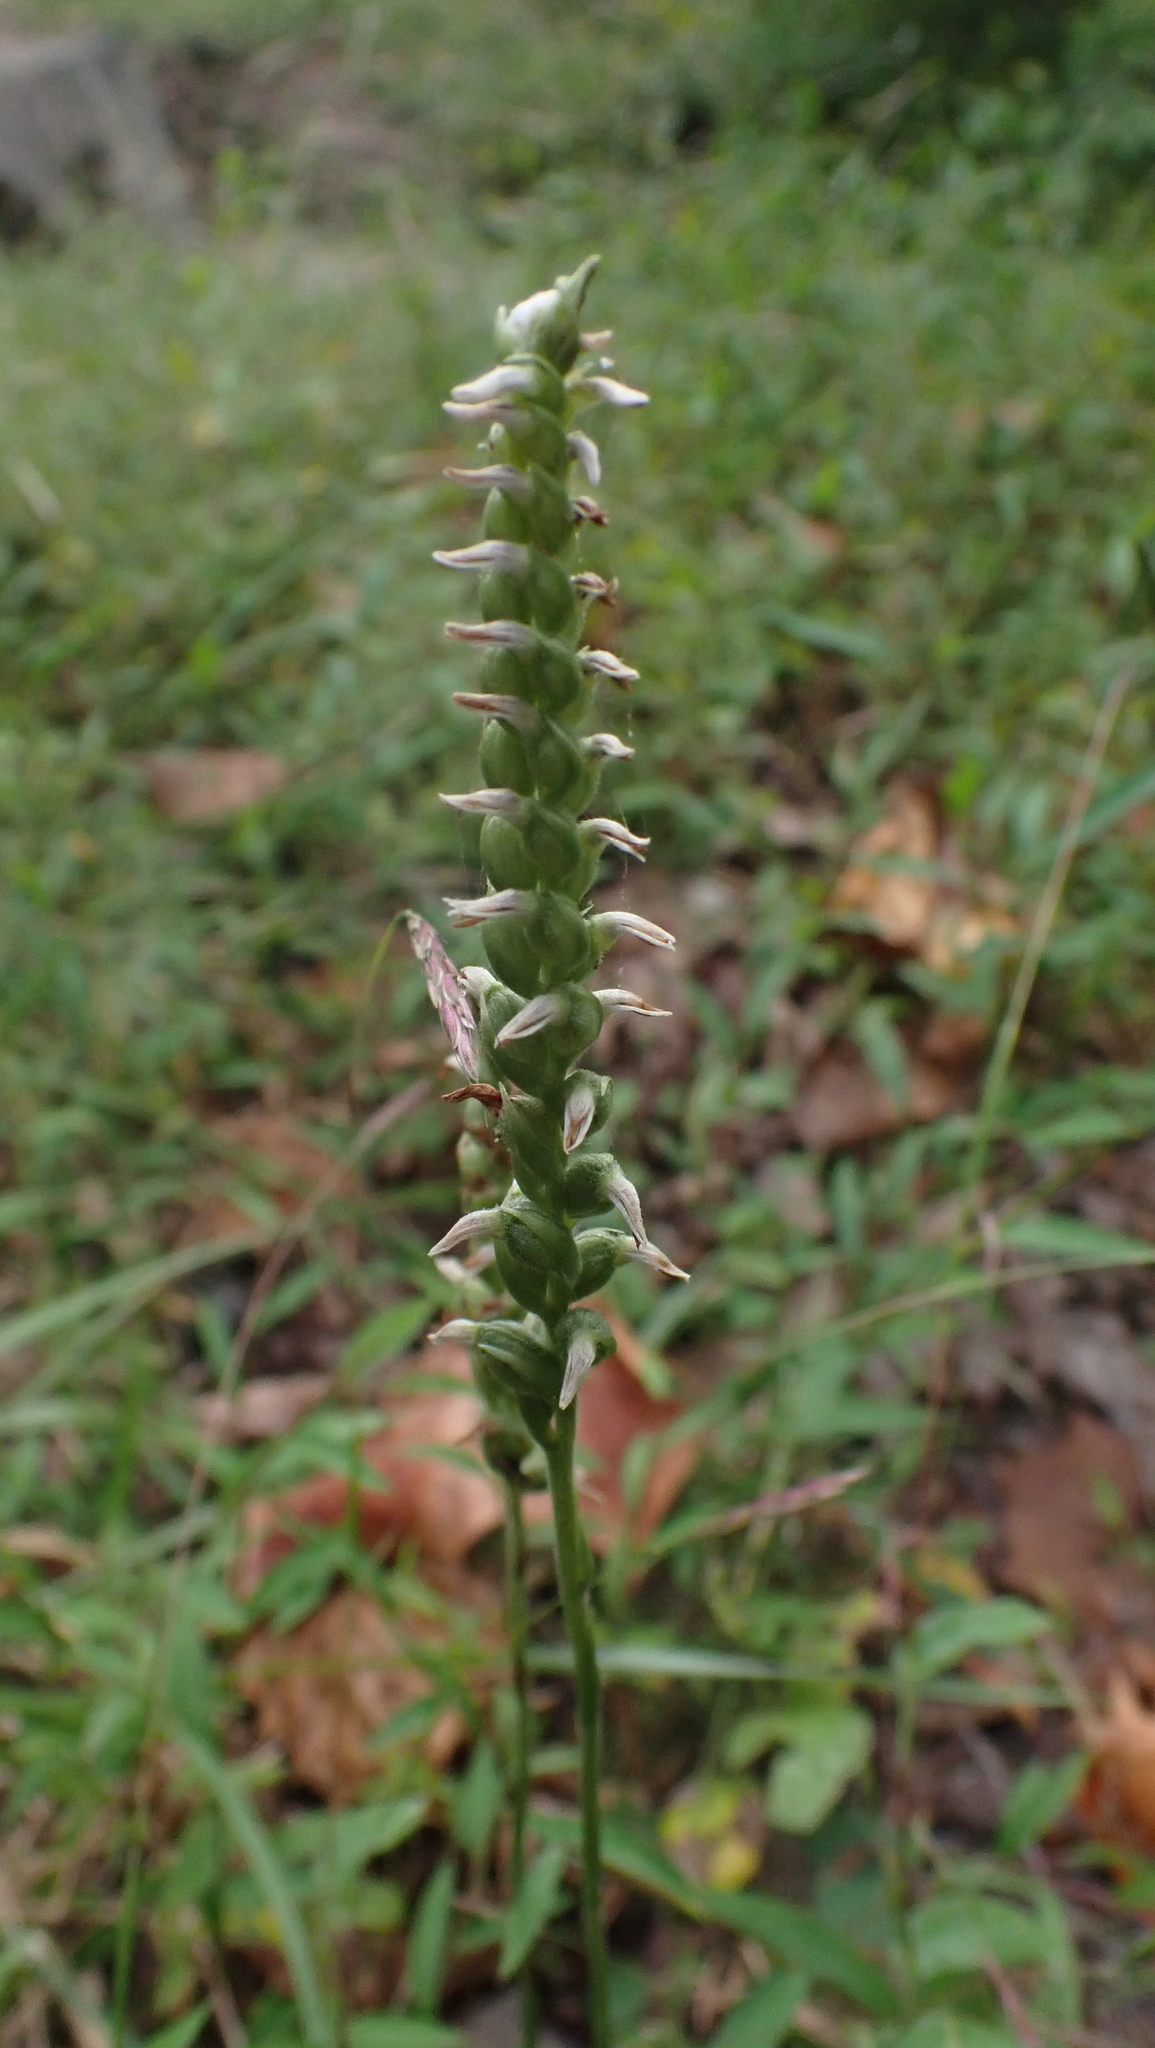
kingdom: Plantae
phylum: Tracheophyta
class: Liliopsida
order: Asparagales
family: Orchidaceae
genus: Spiranthes
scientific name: Spiranthes ovalis
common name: October ladies'-tresses
